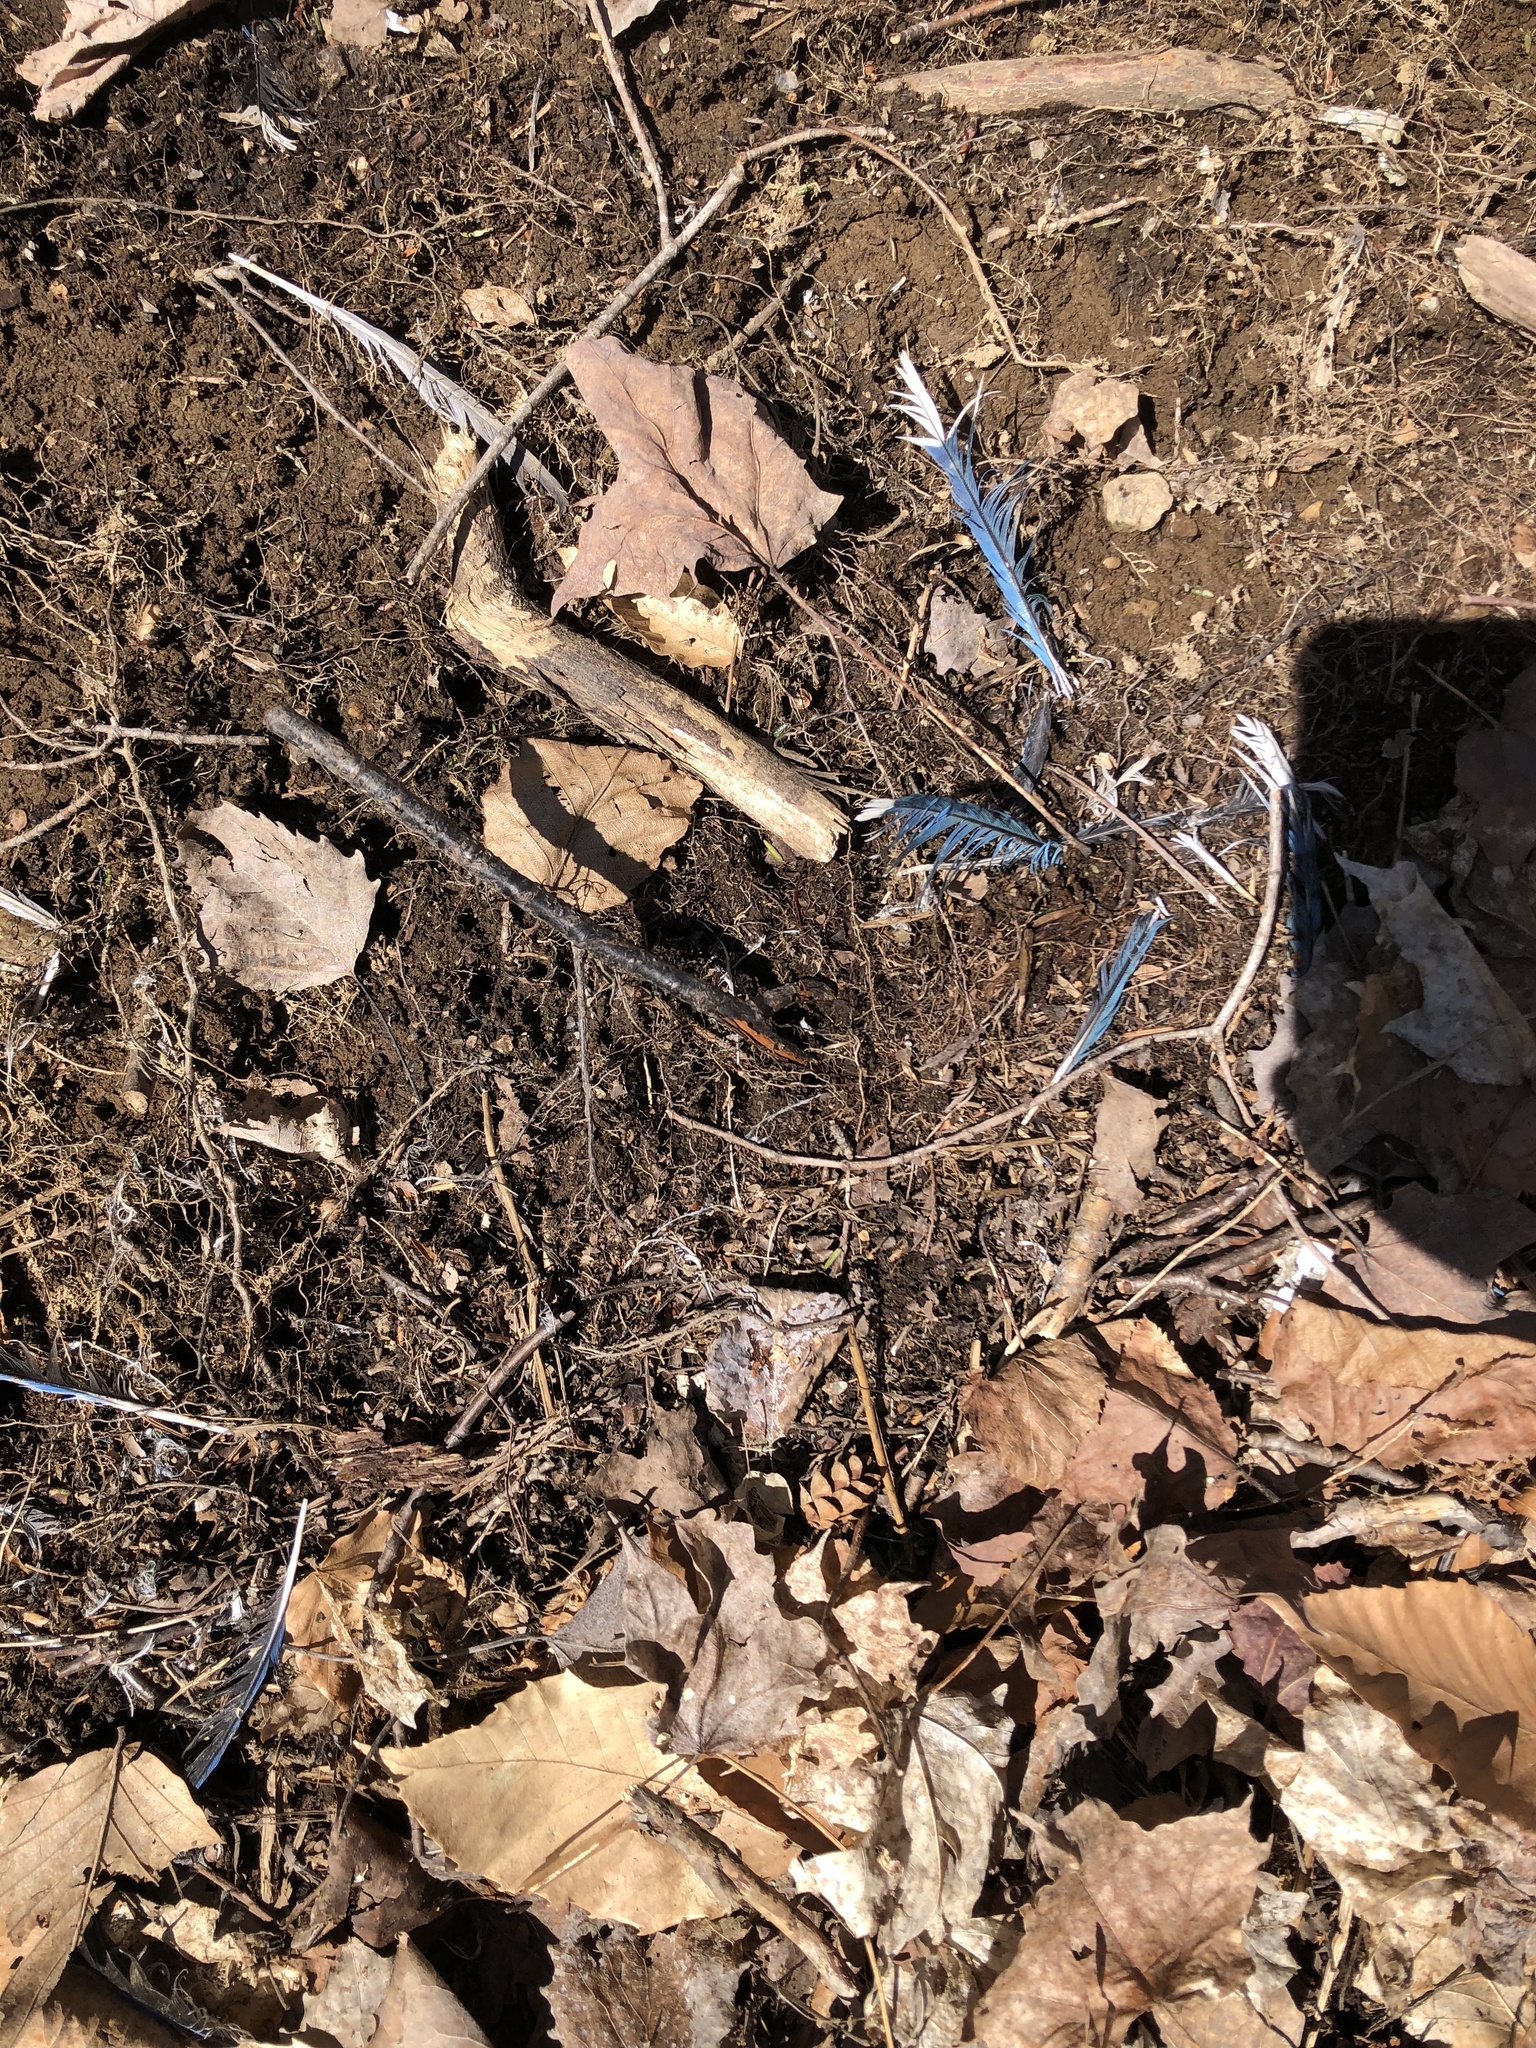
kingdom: Animalia
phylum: Chordata
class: Aves
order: Passeriformes
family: Corvidae
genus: Cyanocitta
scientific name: Cyanocitta cristata
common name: Blue jay
